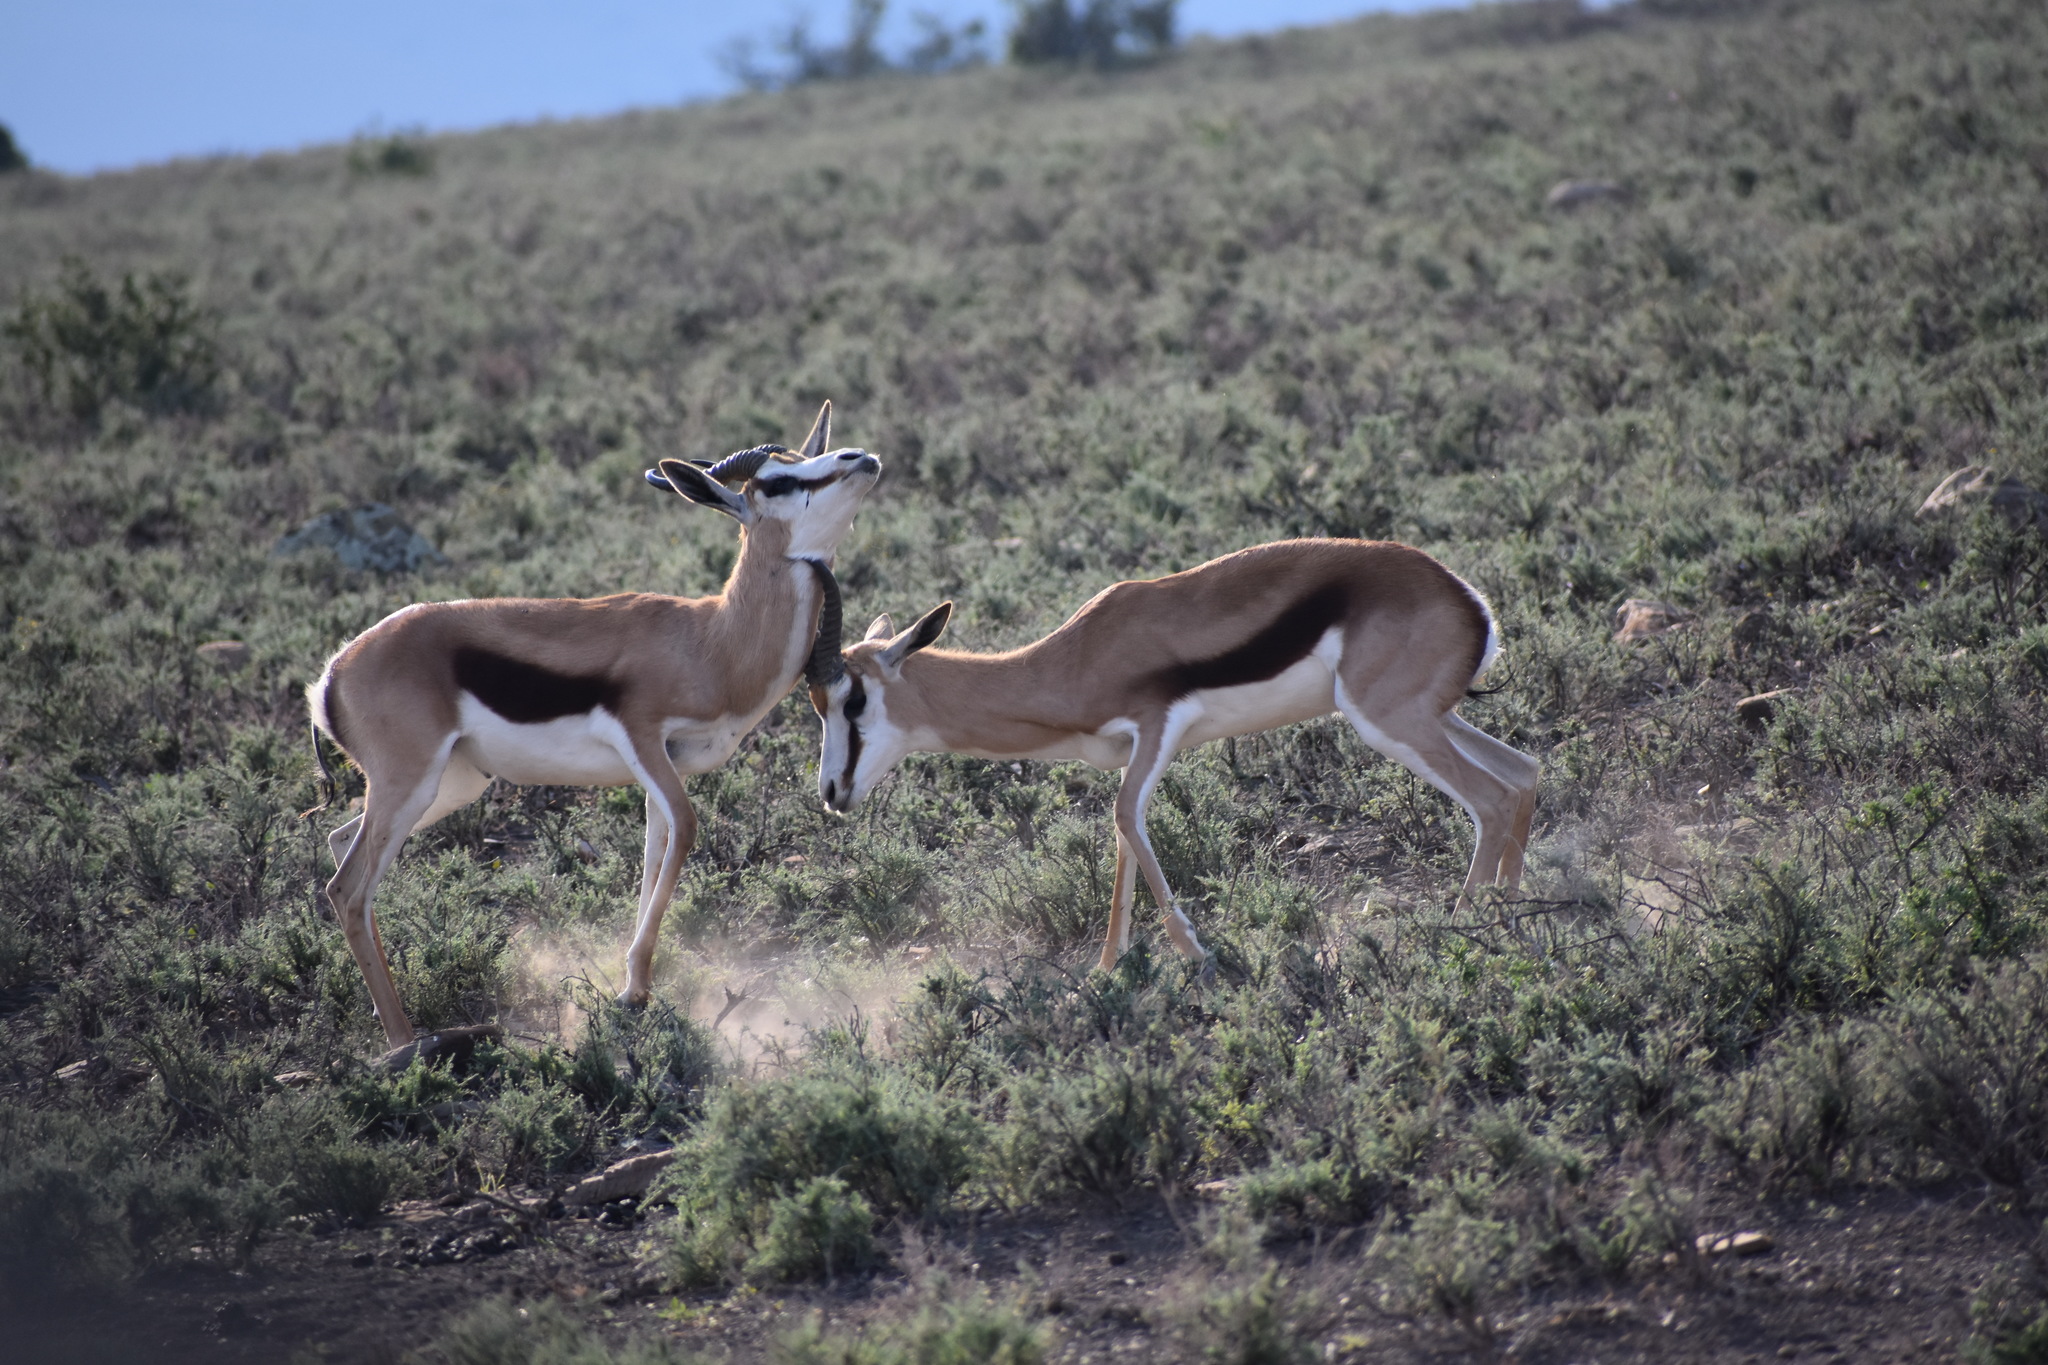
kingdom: Animalia
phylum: Chordata
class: Mammalia
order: Artiodactyla
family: Bovidae
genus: Antidorcas
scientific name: Antidorcas marsupialis
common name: Springbok
